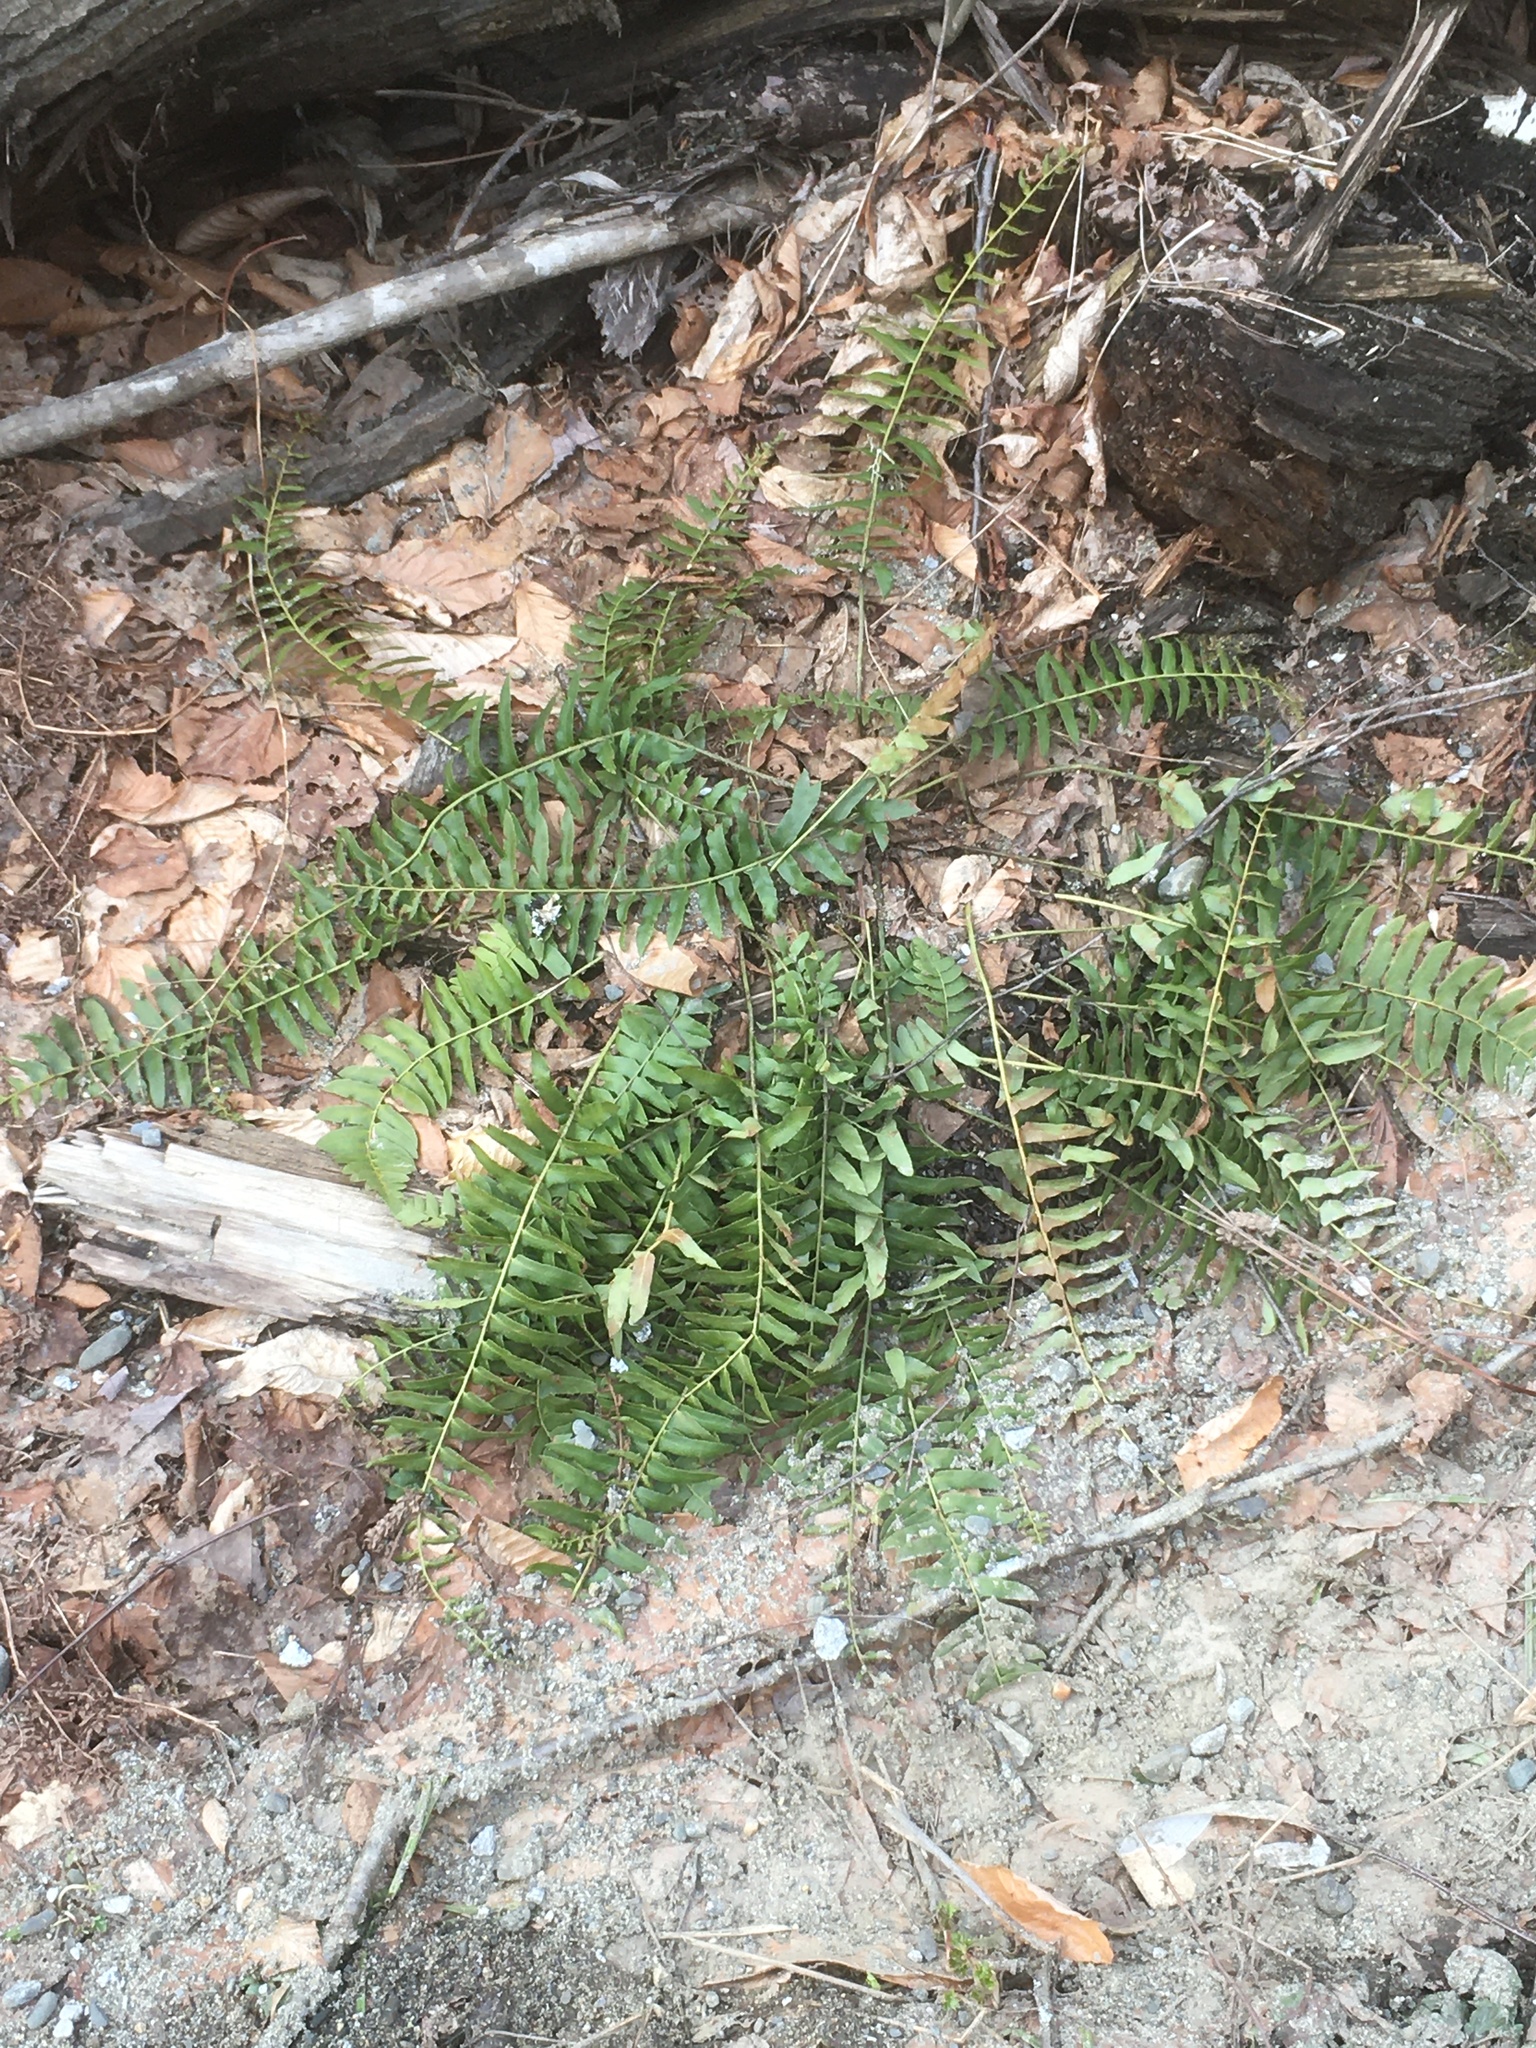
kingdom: Plantae
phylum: Tracheophyta
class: Polypodiopsida
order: Polypodiales
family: Dryopteridaceae
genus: Polystichum
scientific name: Polystichum acrostichoides
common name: Christmas fern
